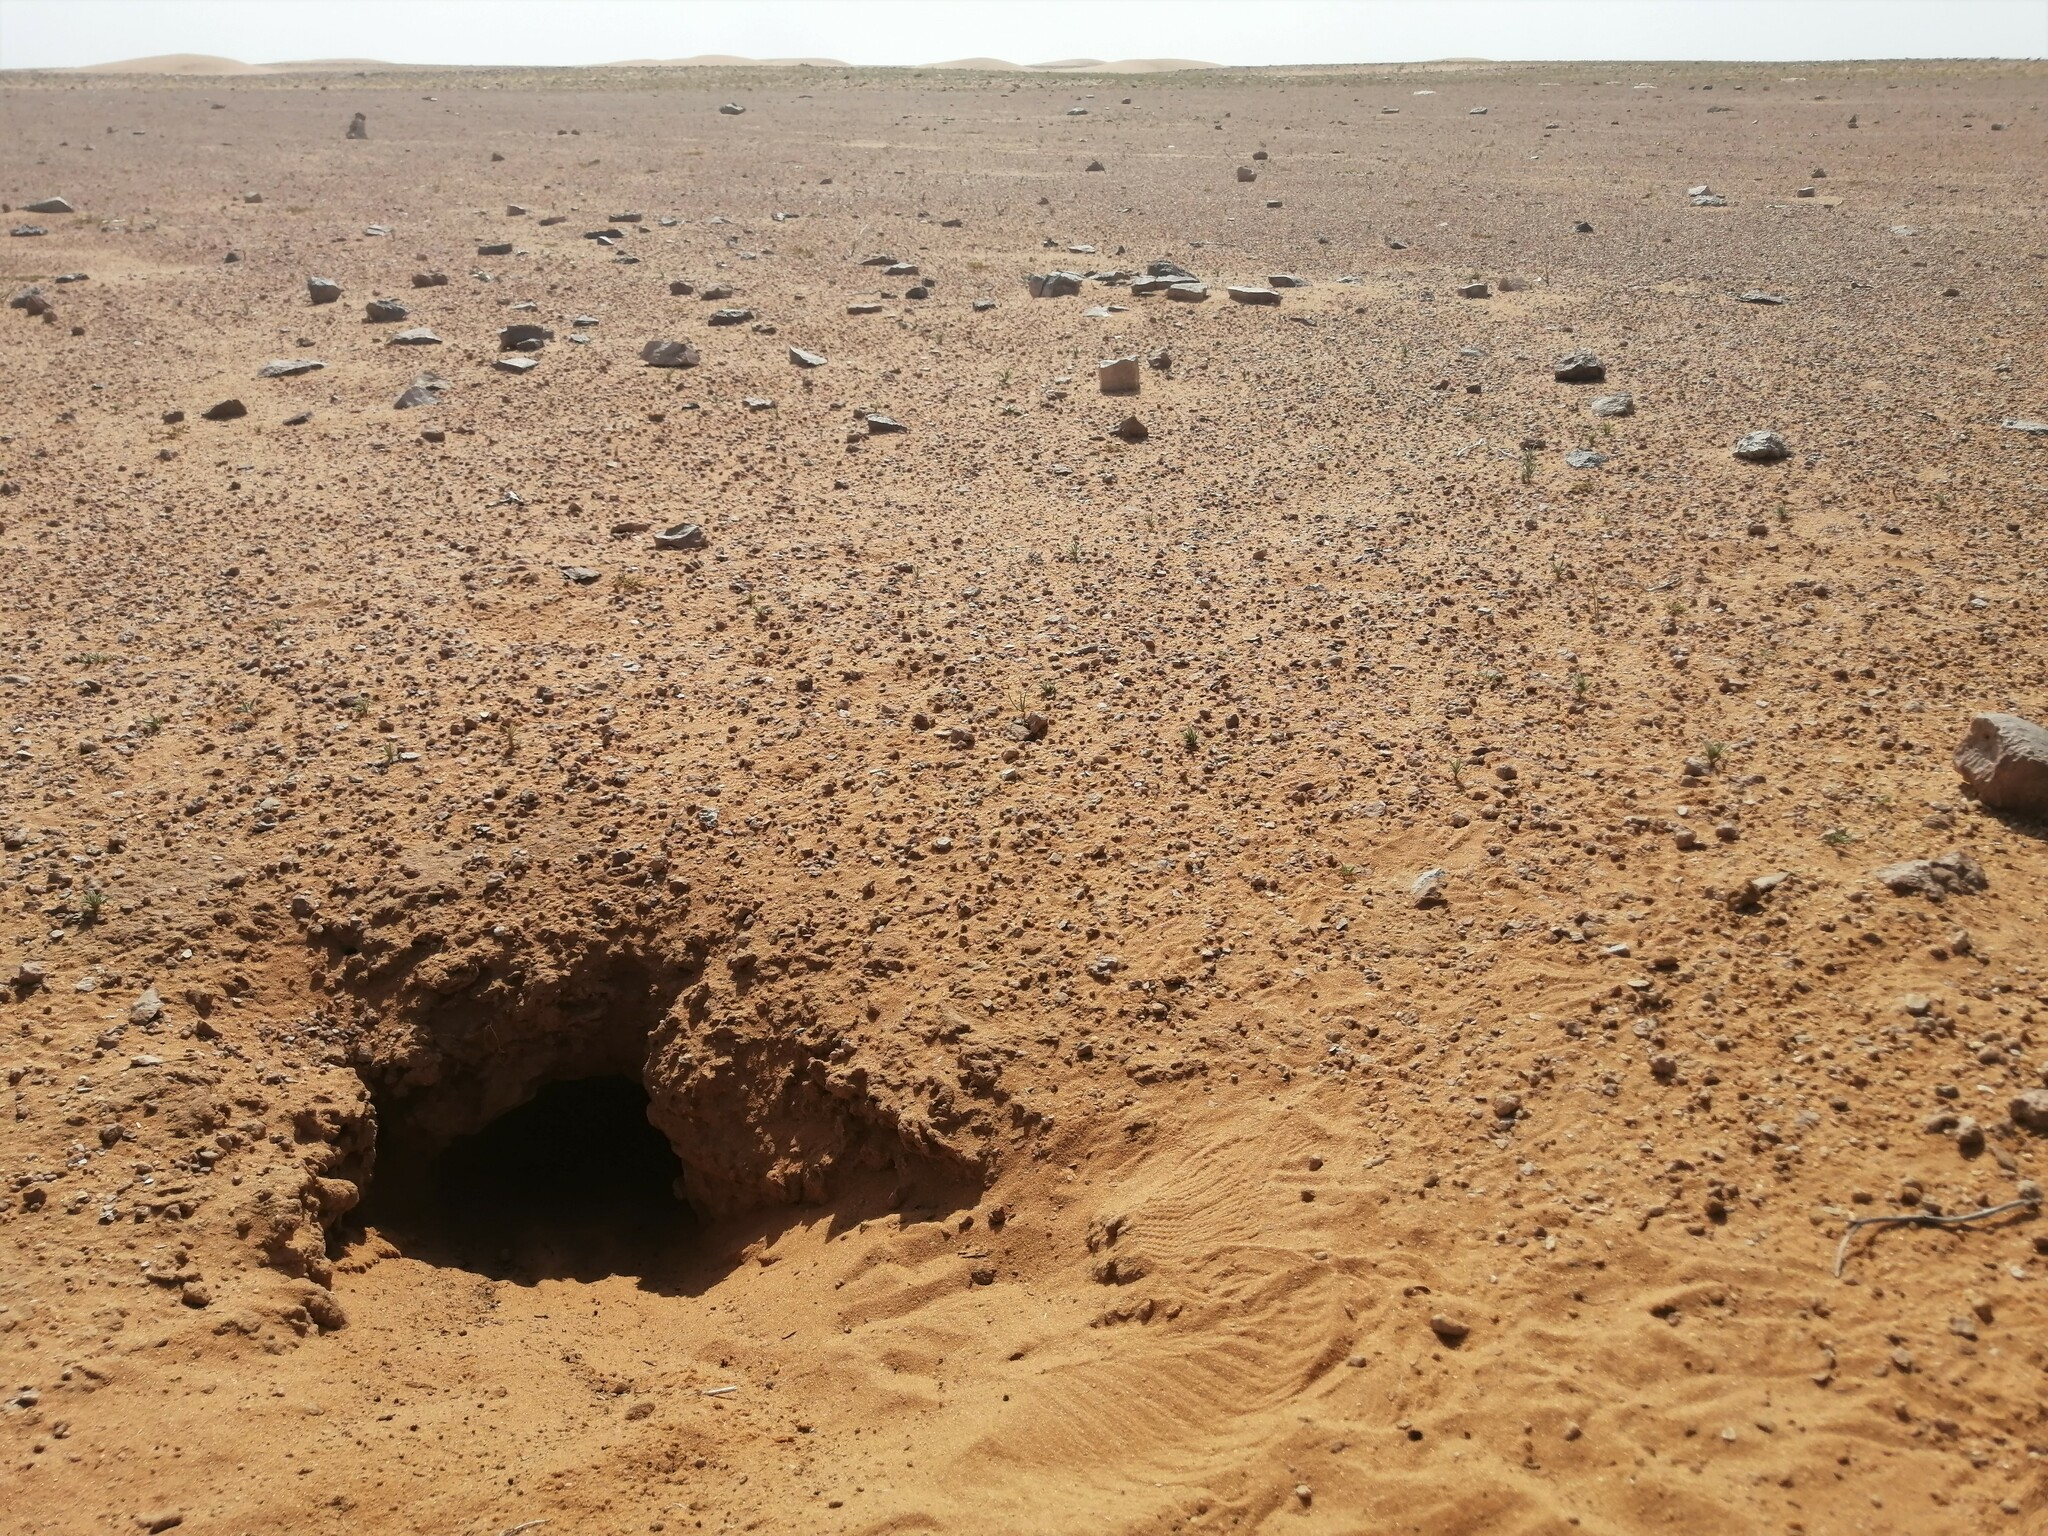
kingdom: Animalia
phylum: Chordata
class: Squamata
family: Agamidae
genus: Uromastyx
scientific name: Uromastyx aegyptia
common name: Egyptian mastigure
